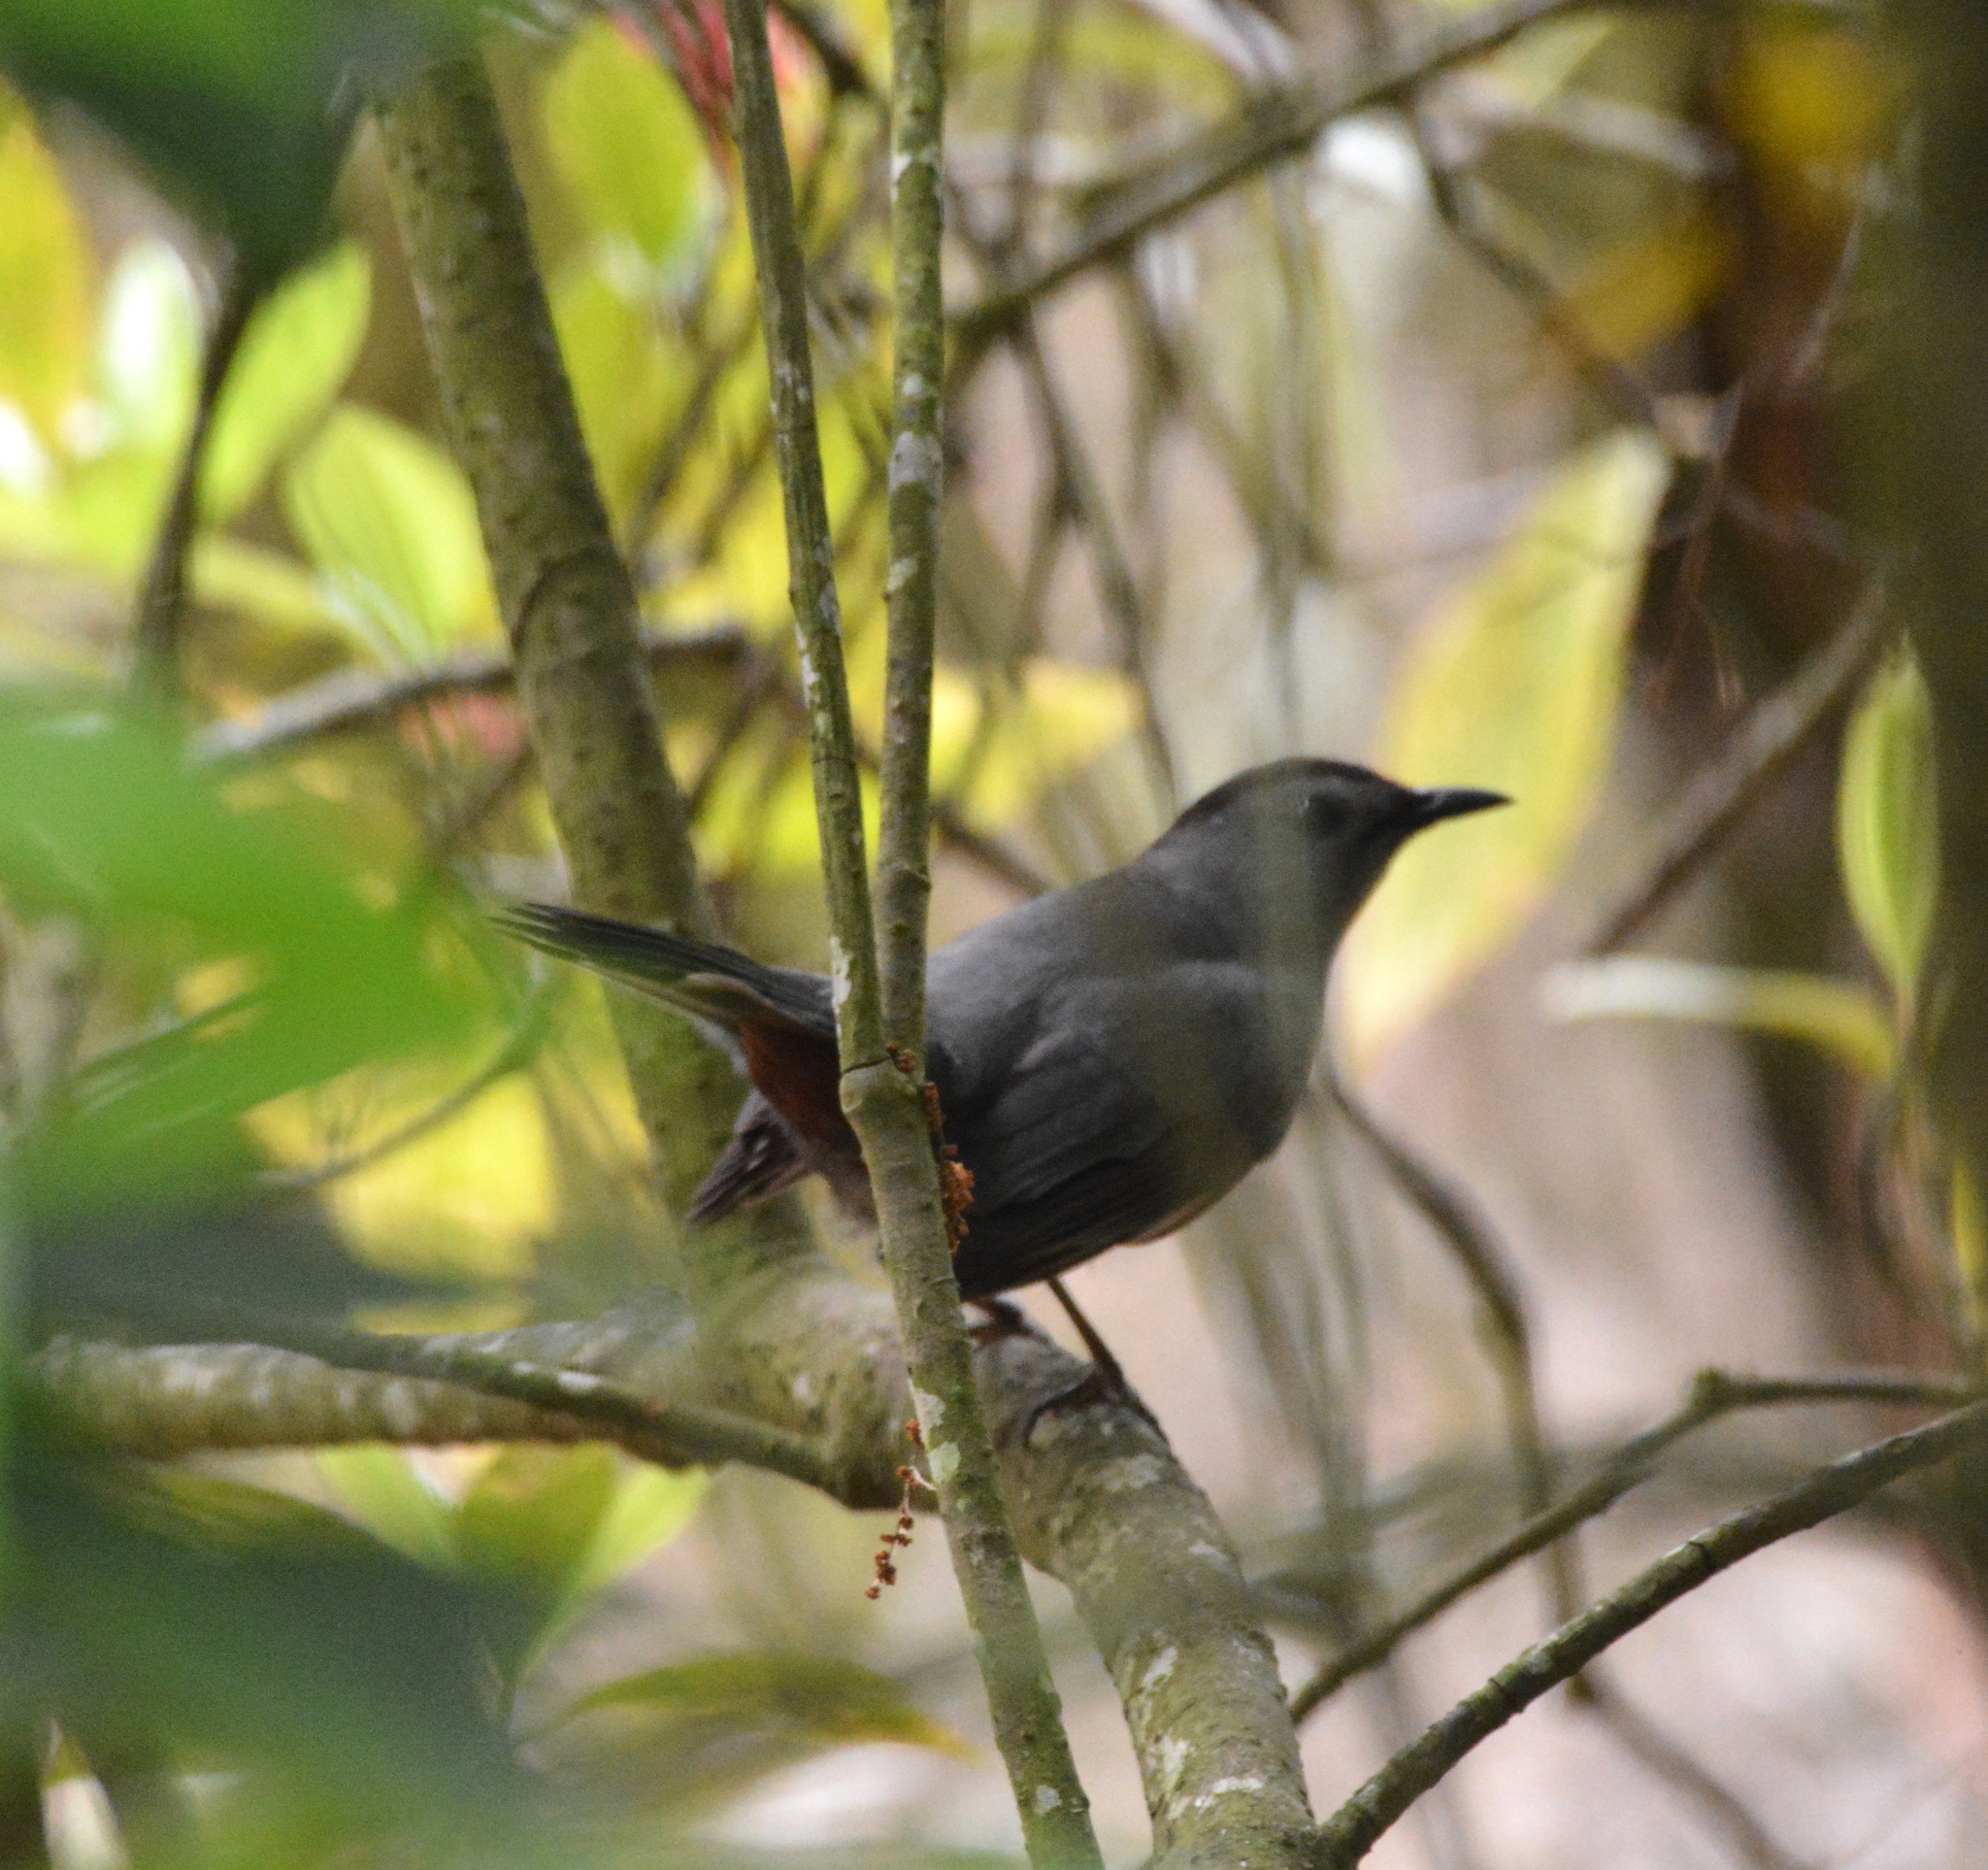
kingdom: Animalia
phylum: Chordata
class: Aves
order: Passeriformes
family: Mimidae
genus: Dumetella
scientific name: Dumetella carolinensis
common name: Gray catbird
